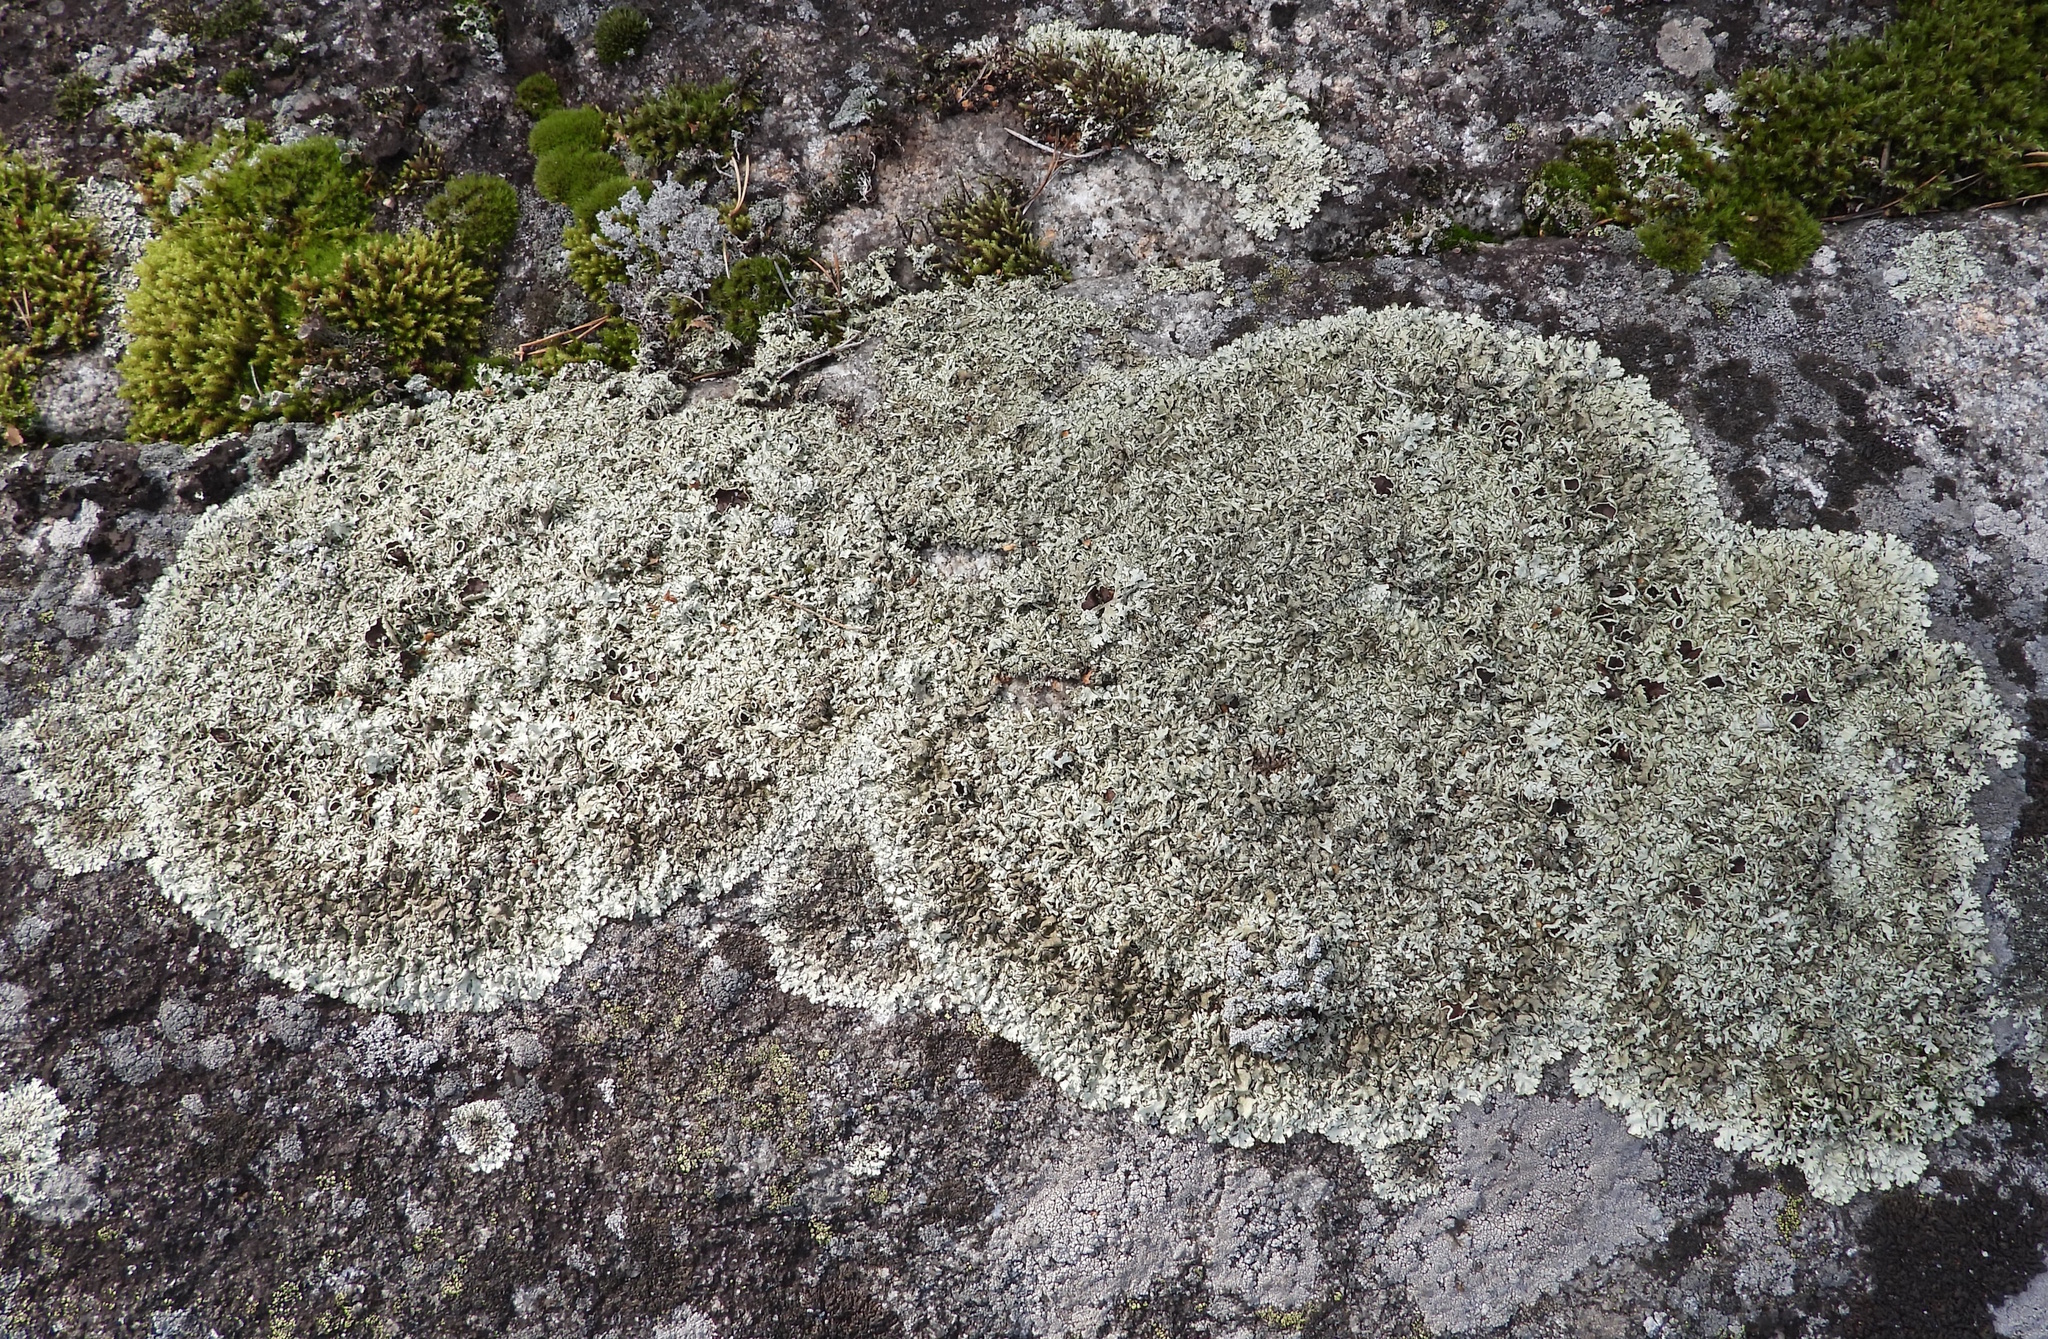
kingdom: Fungi
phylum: Ascomycota
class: Lecanoromycetes
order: Lecanorales
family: Parmeliaceae
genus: Xanthoparmelia
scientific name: Xanthoparmelia stenophylla
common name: Shingled rock shield
